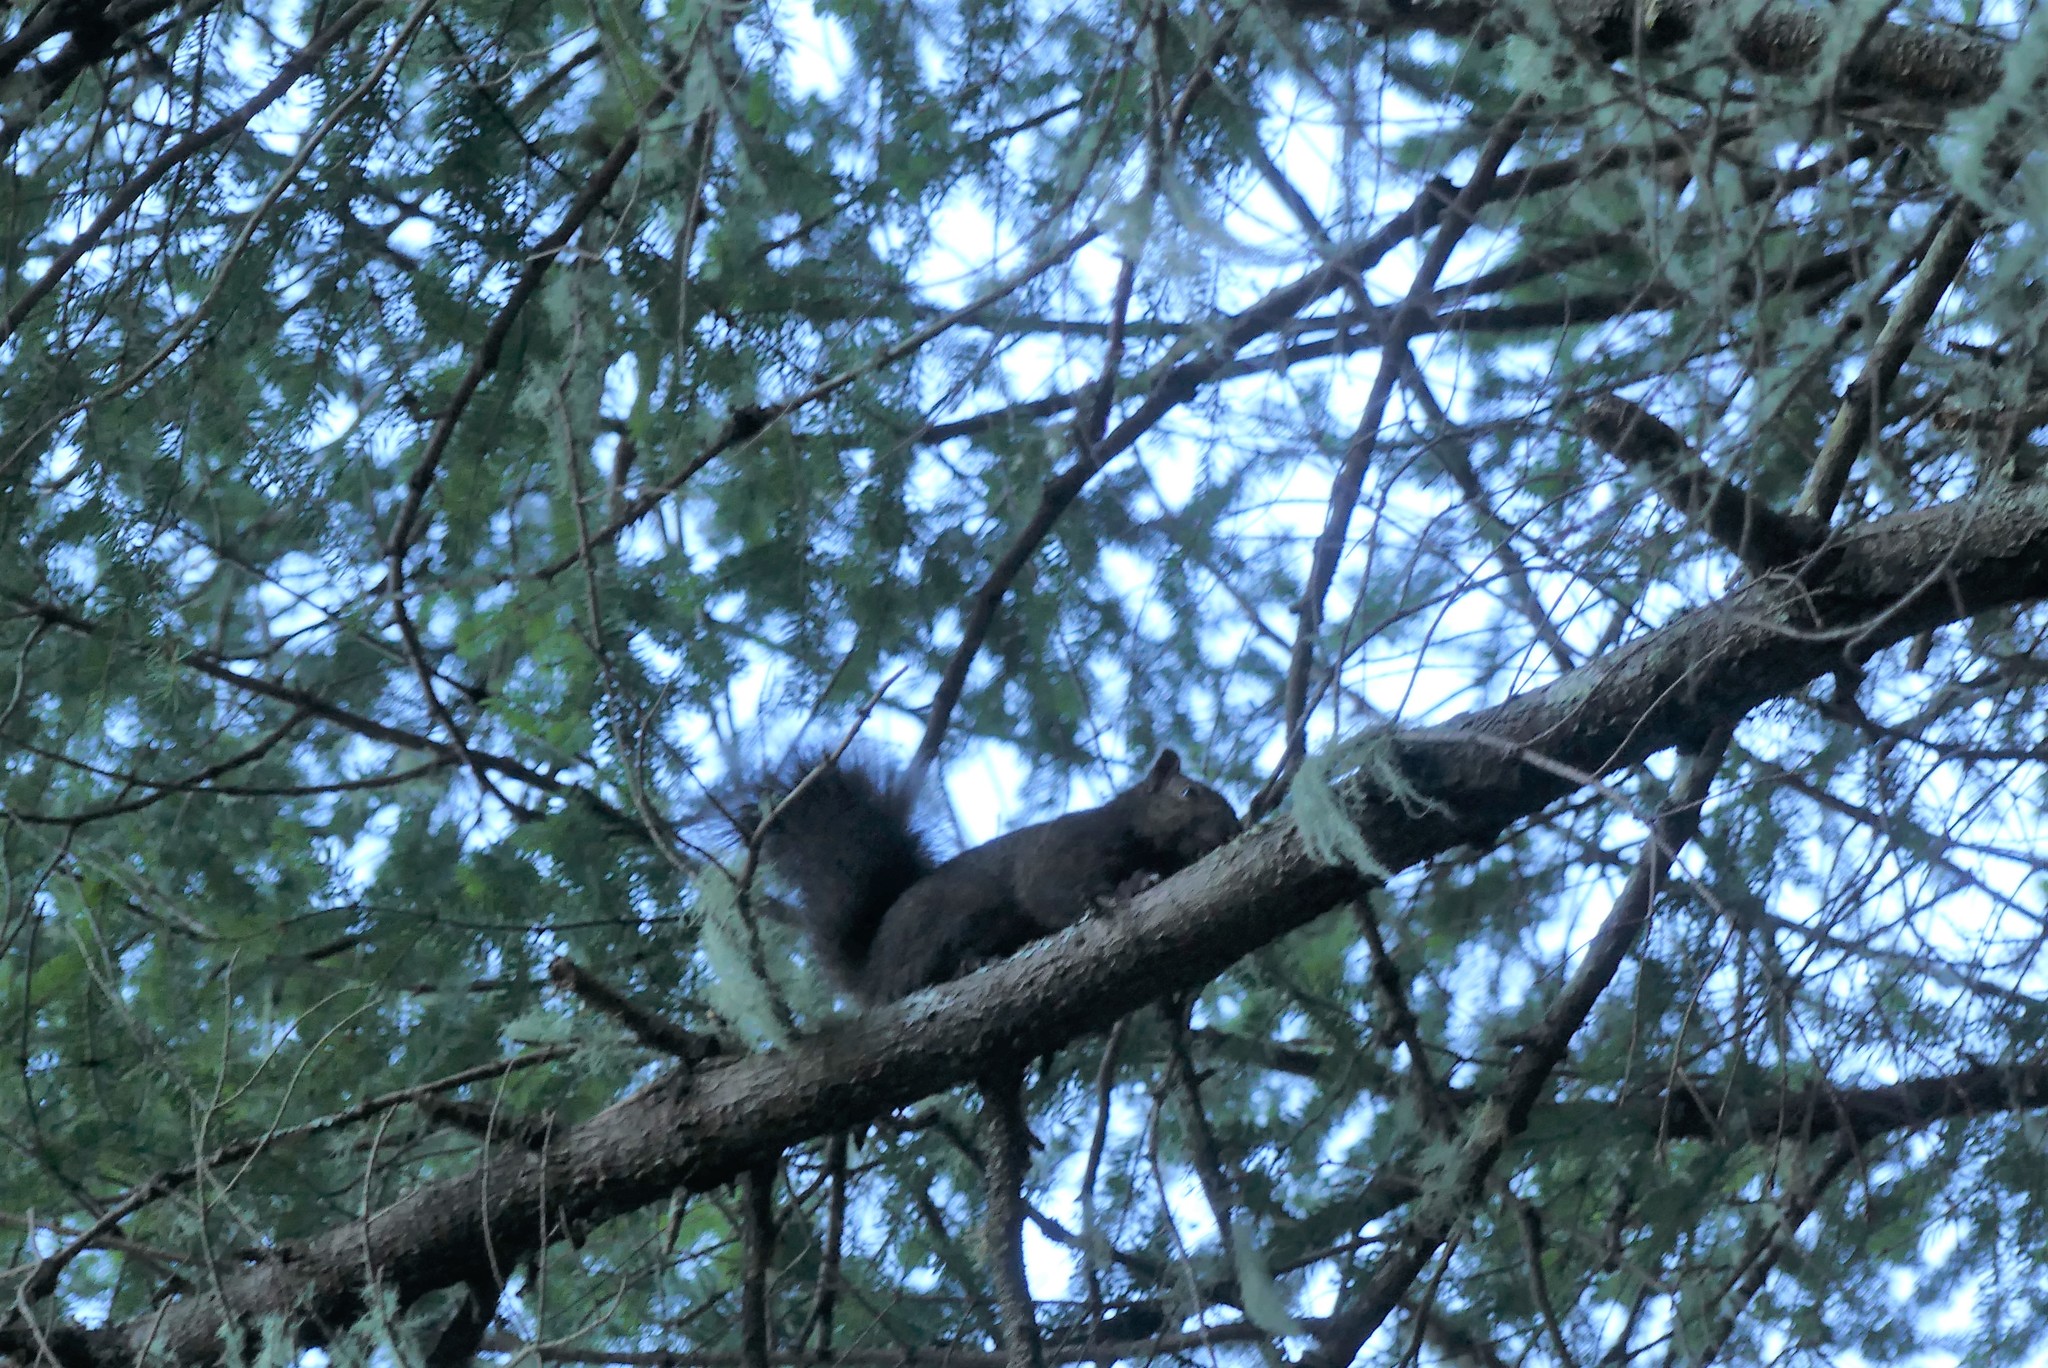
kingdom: Animalia
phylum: Chordata
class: Mammalia
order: Rodentia
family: Sciuridae
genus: Sciurus
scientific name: Sciurus carolinensis
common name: Eastern gray squirrel
